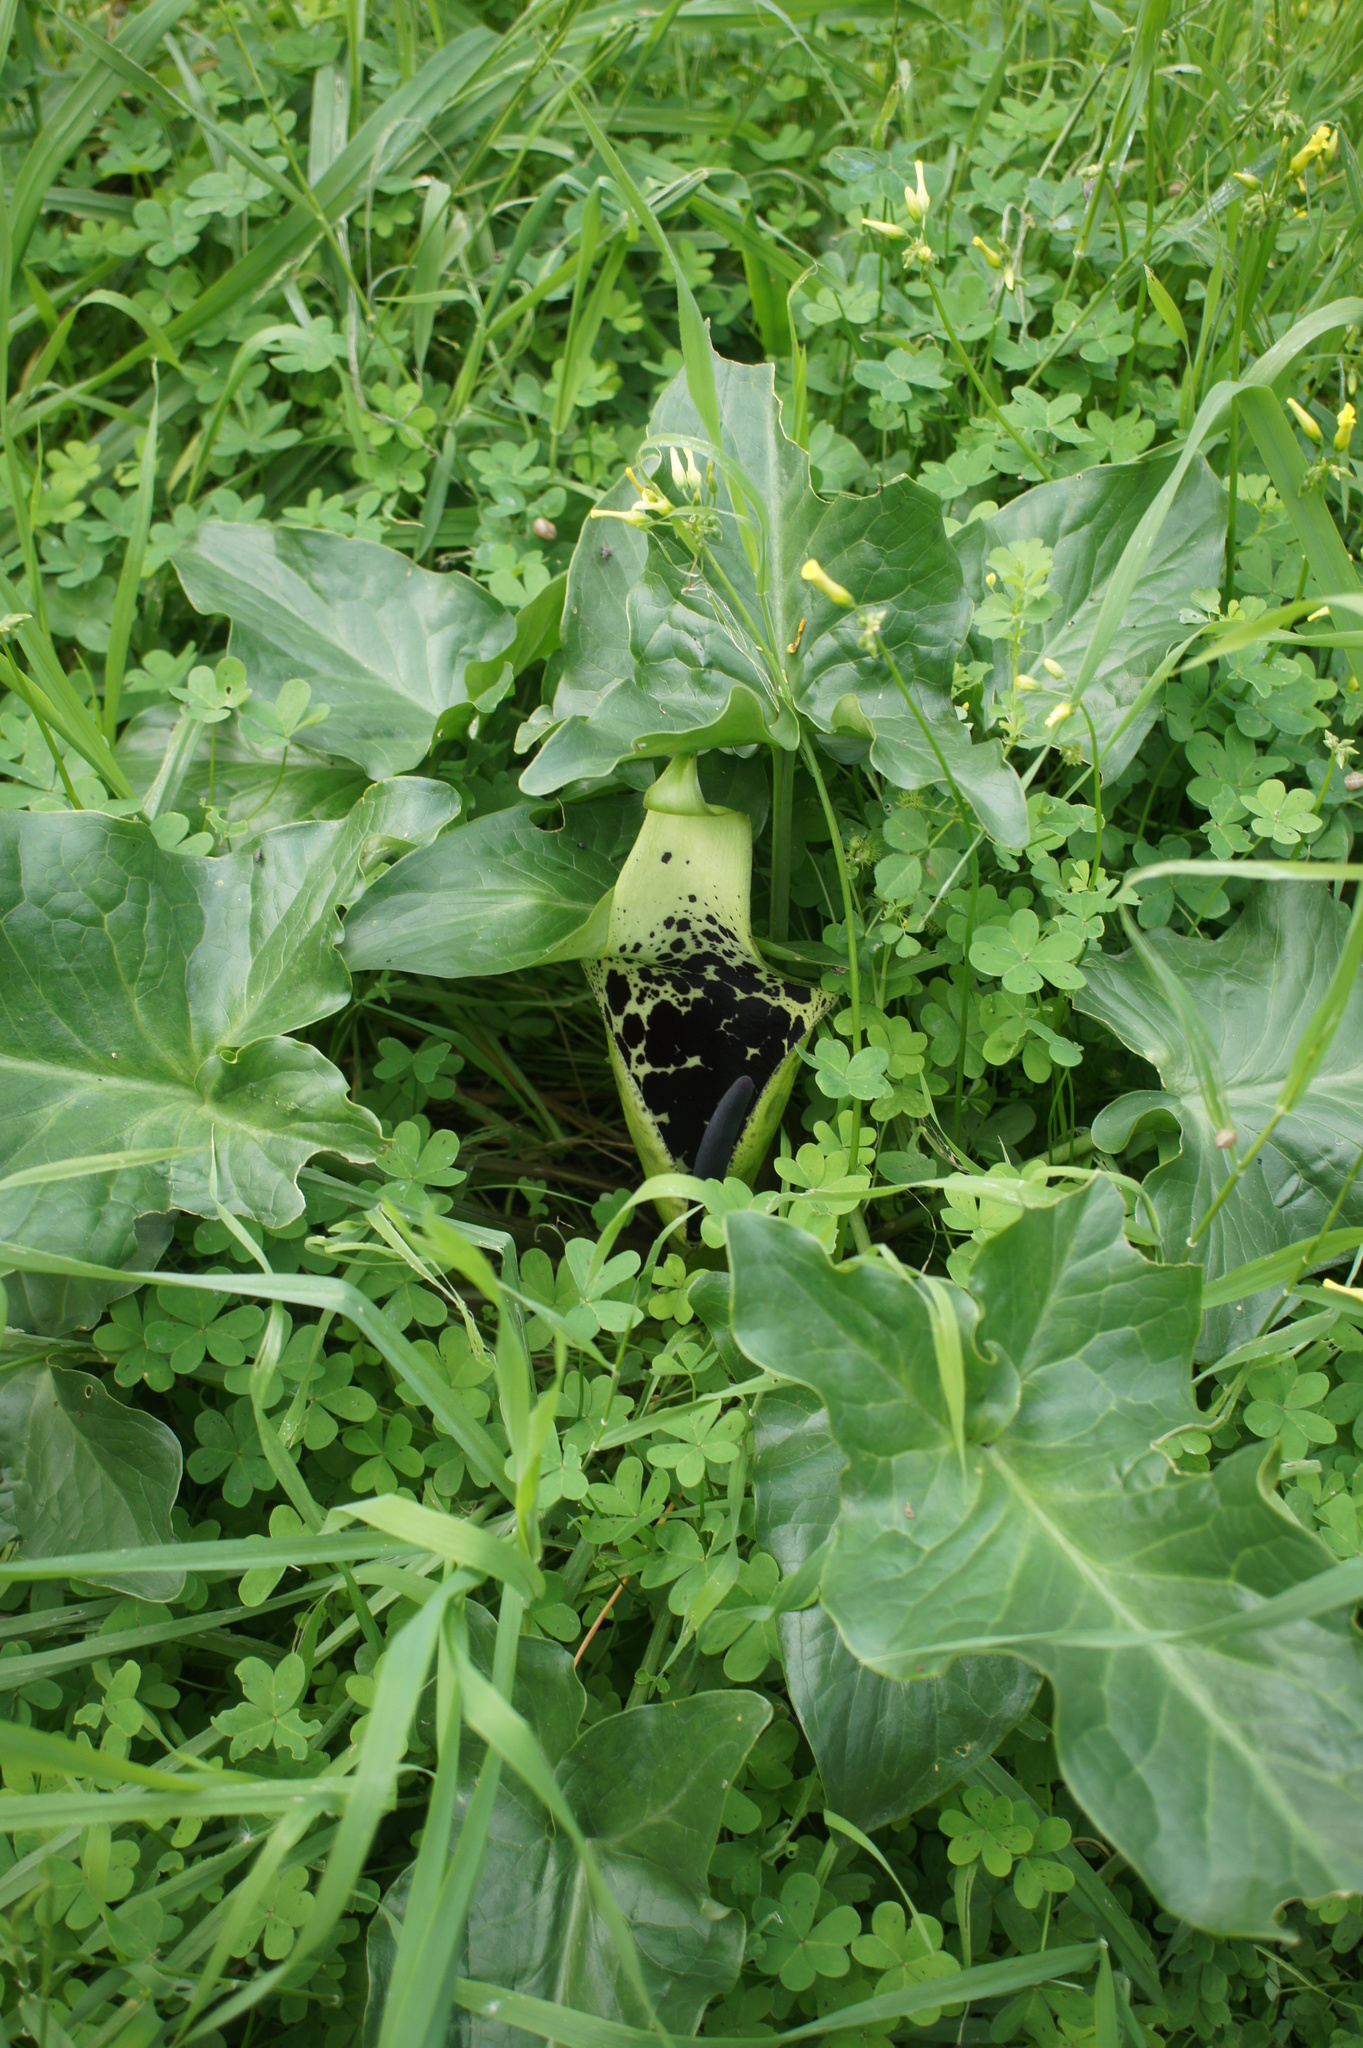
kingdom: Plantae
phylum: Tracheophyta
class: Liliopsida
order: Alismatales
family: Araceae
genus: Arum
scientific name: Arum dioscoridis
